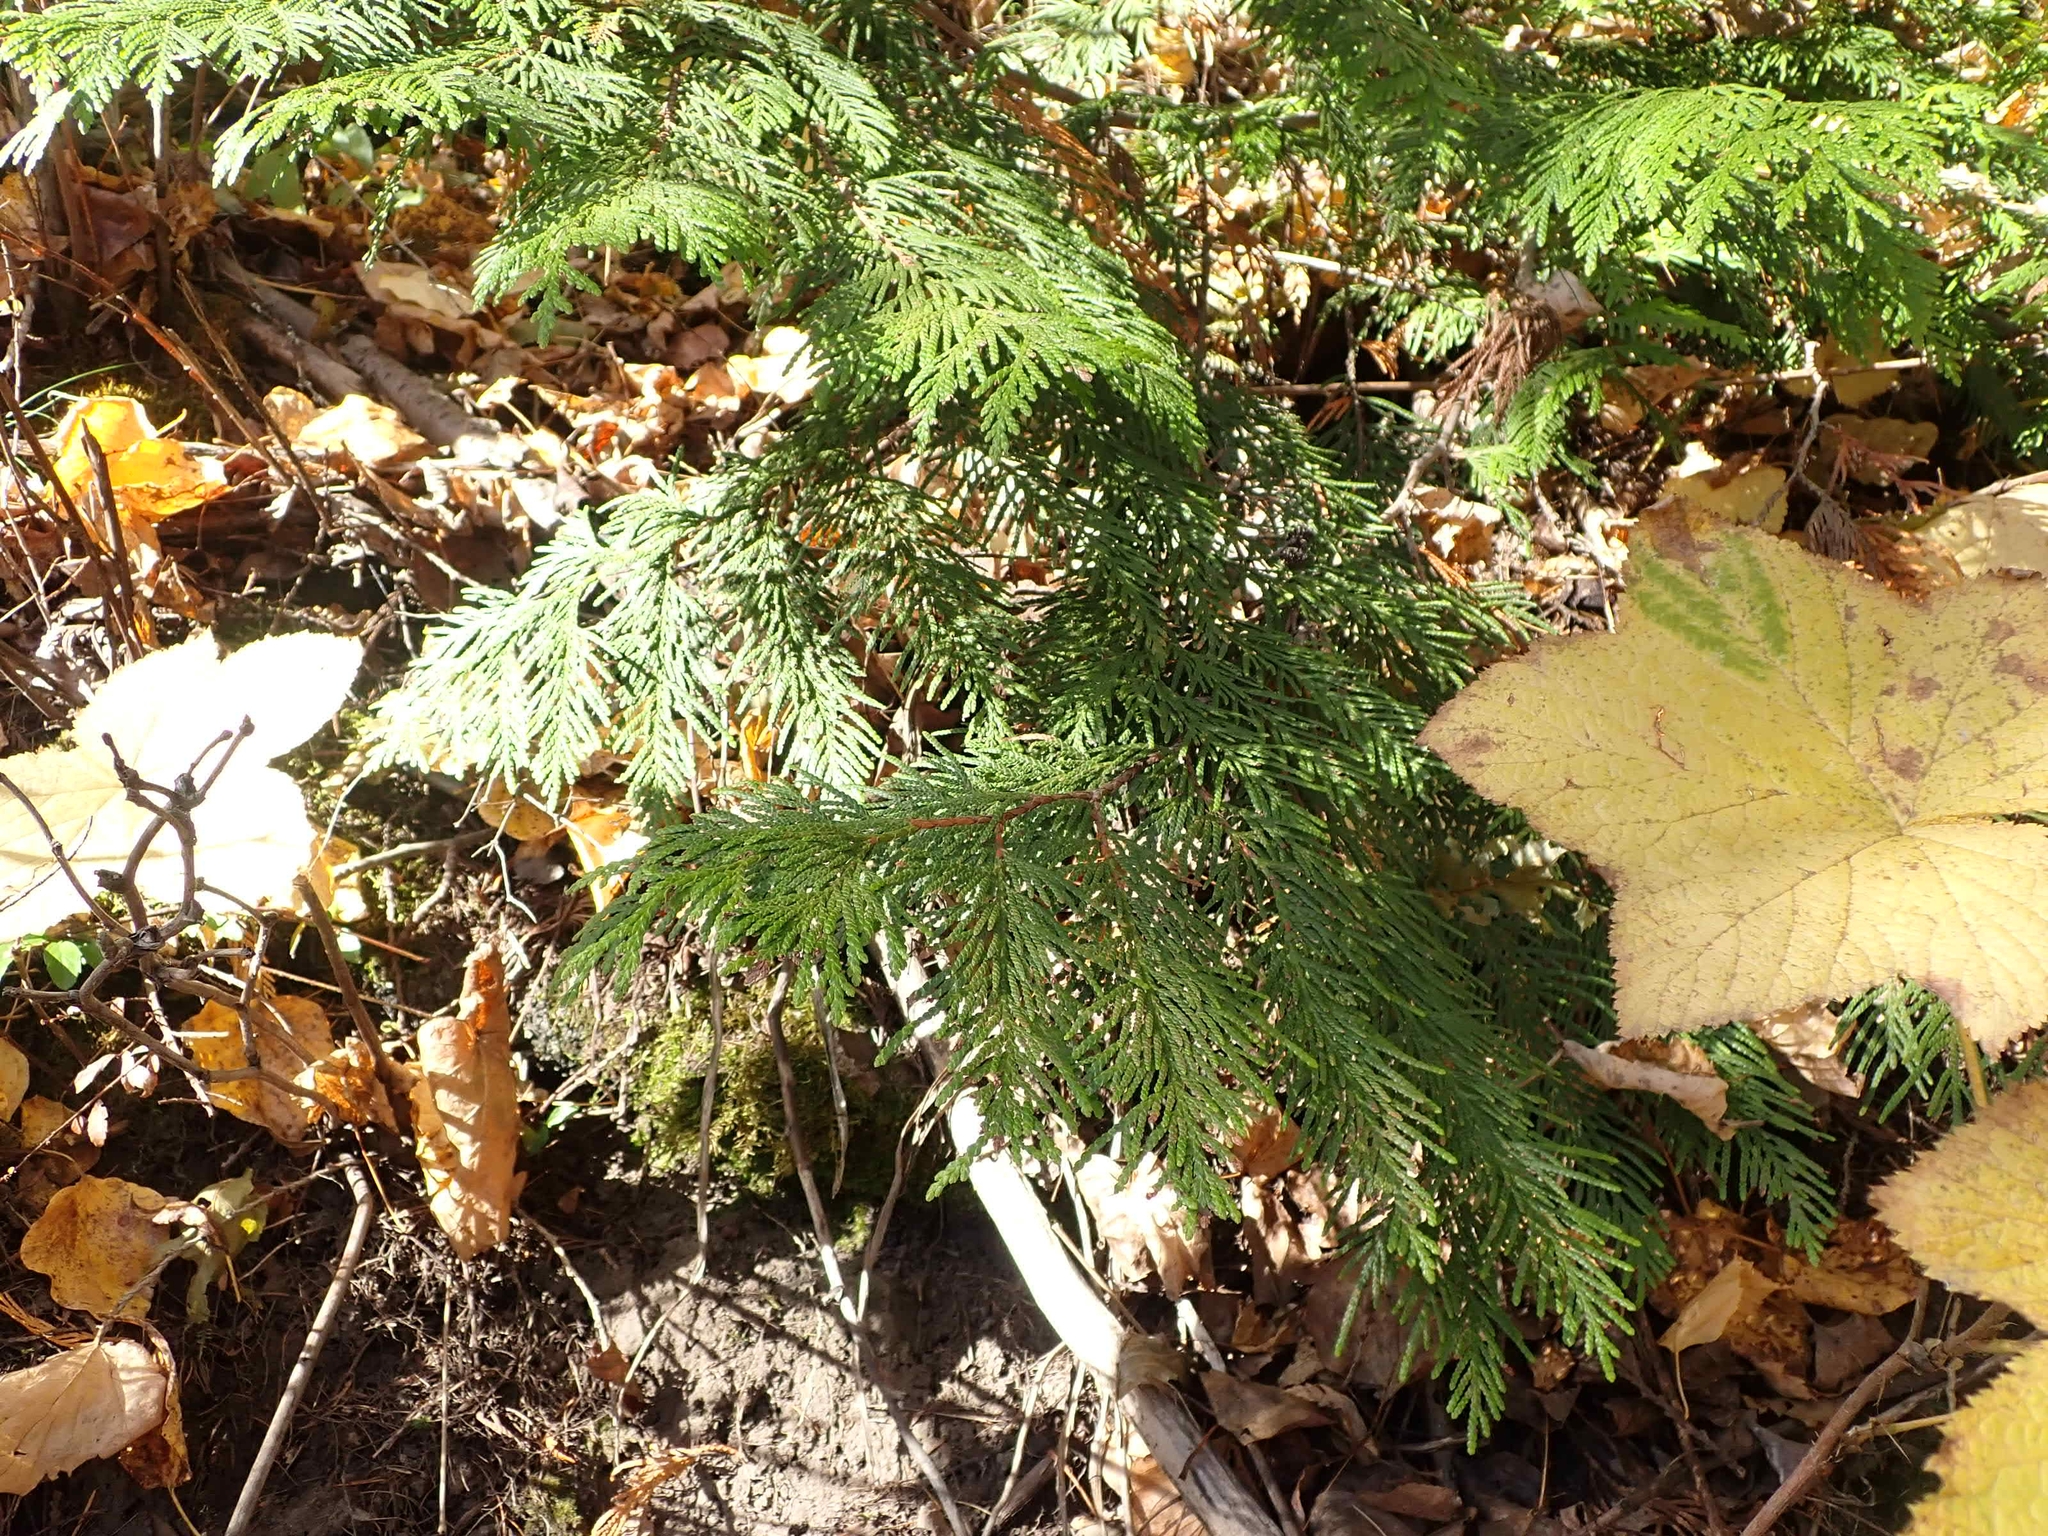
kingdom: Plantae
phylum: Tracheophyta
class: Pinopsida
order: Pinales
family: Cupressaceae
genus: Thuja
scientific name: Thuja plicata
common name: Western red-cedar
